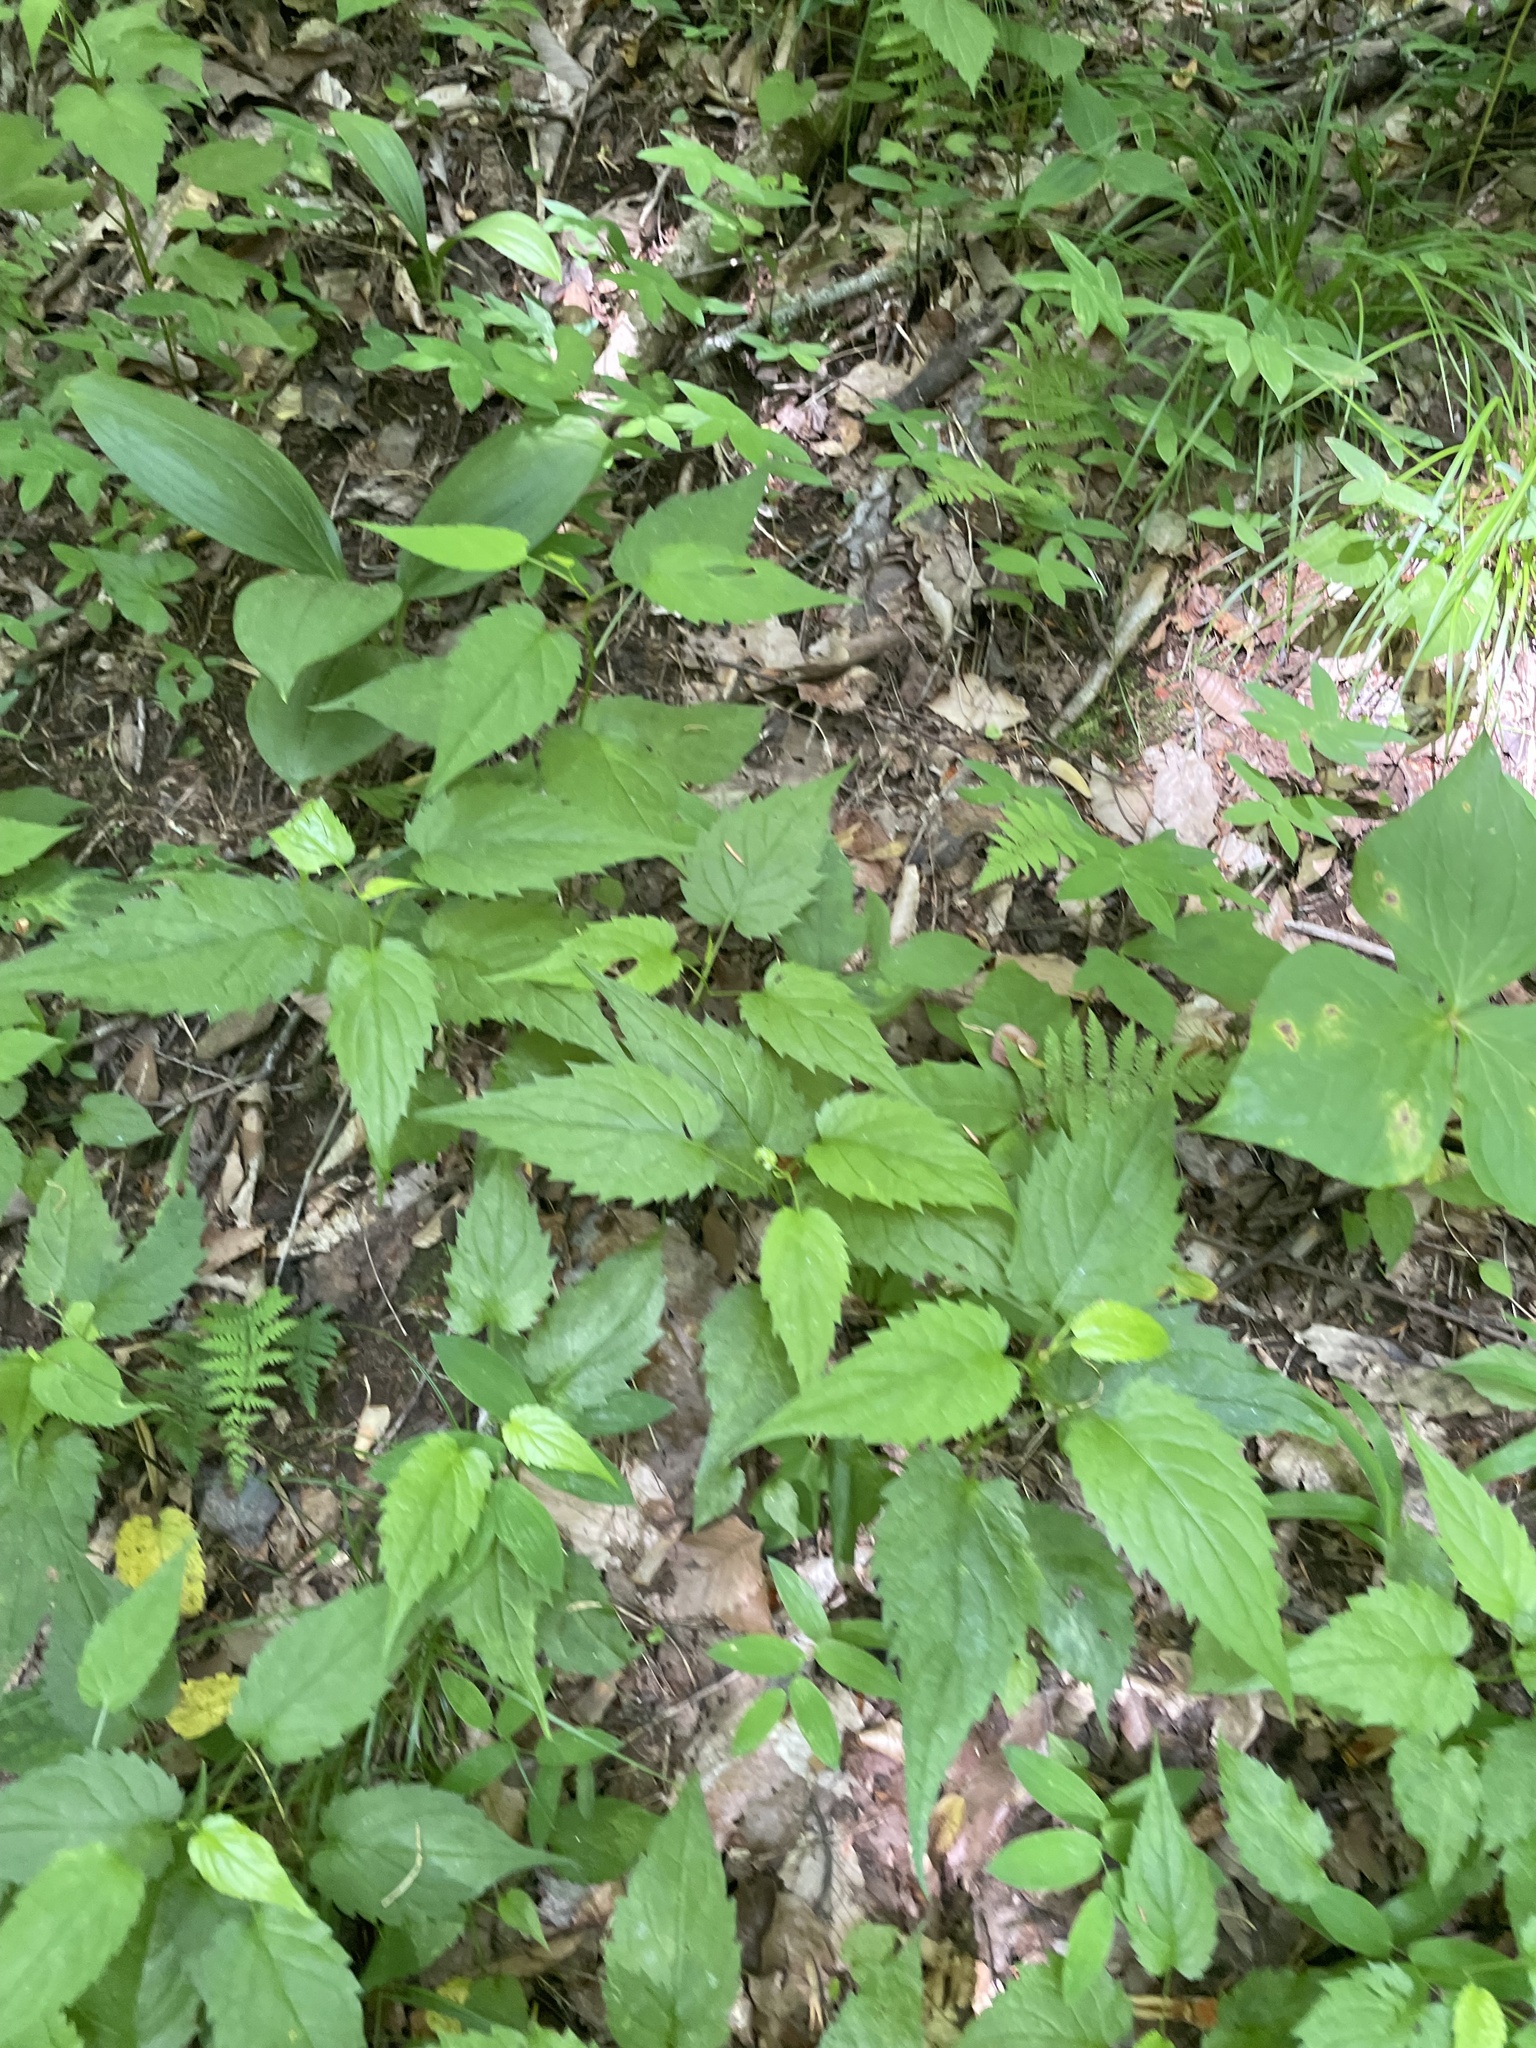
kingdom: Plantae
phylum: Tracheophyta
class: Magnoliopsida
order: Asterales
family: Asteraceae
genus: Eurybia
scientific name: Eurybia divaricata
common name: White wood aster
